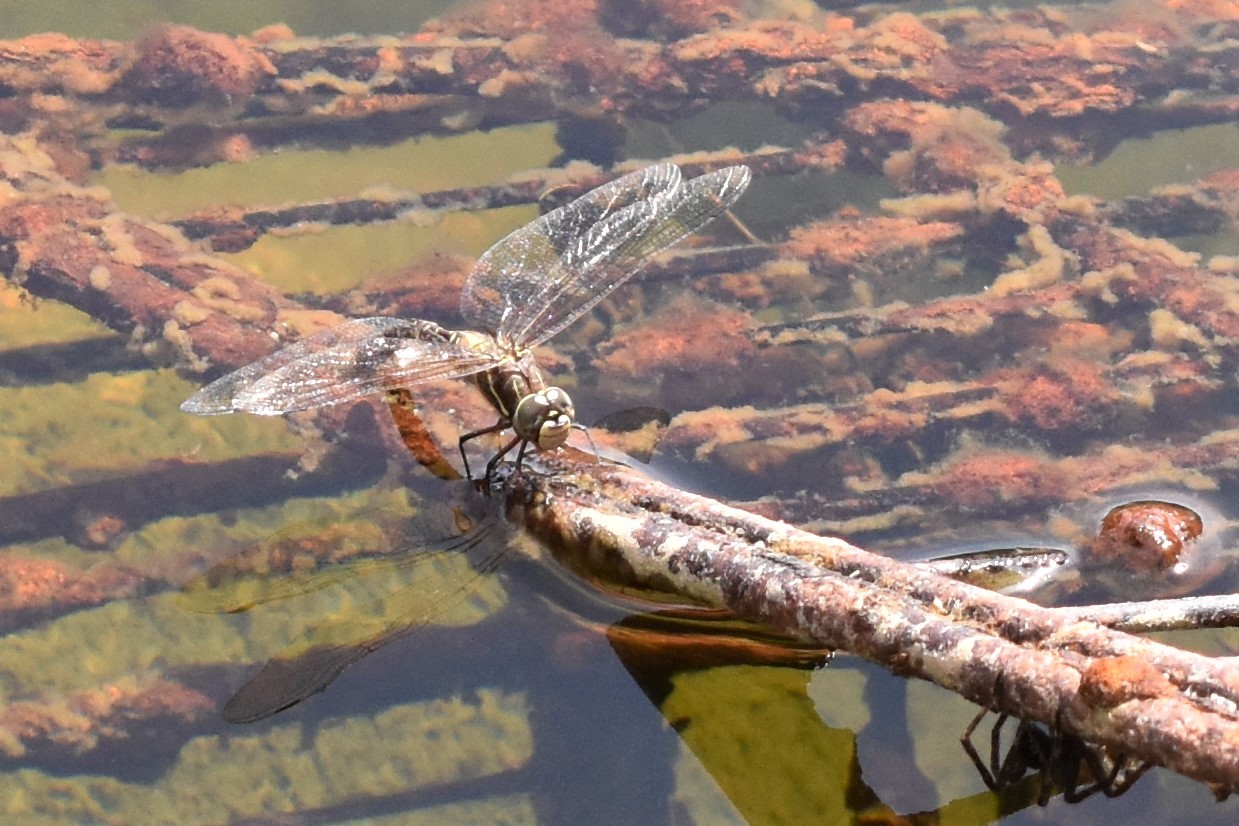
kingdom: Animalia
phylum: Arthropoda
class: Insecta
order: Odonata
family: Aeshnidae
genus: Aeshna
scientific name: Aeshna brevistyla
